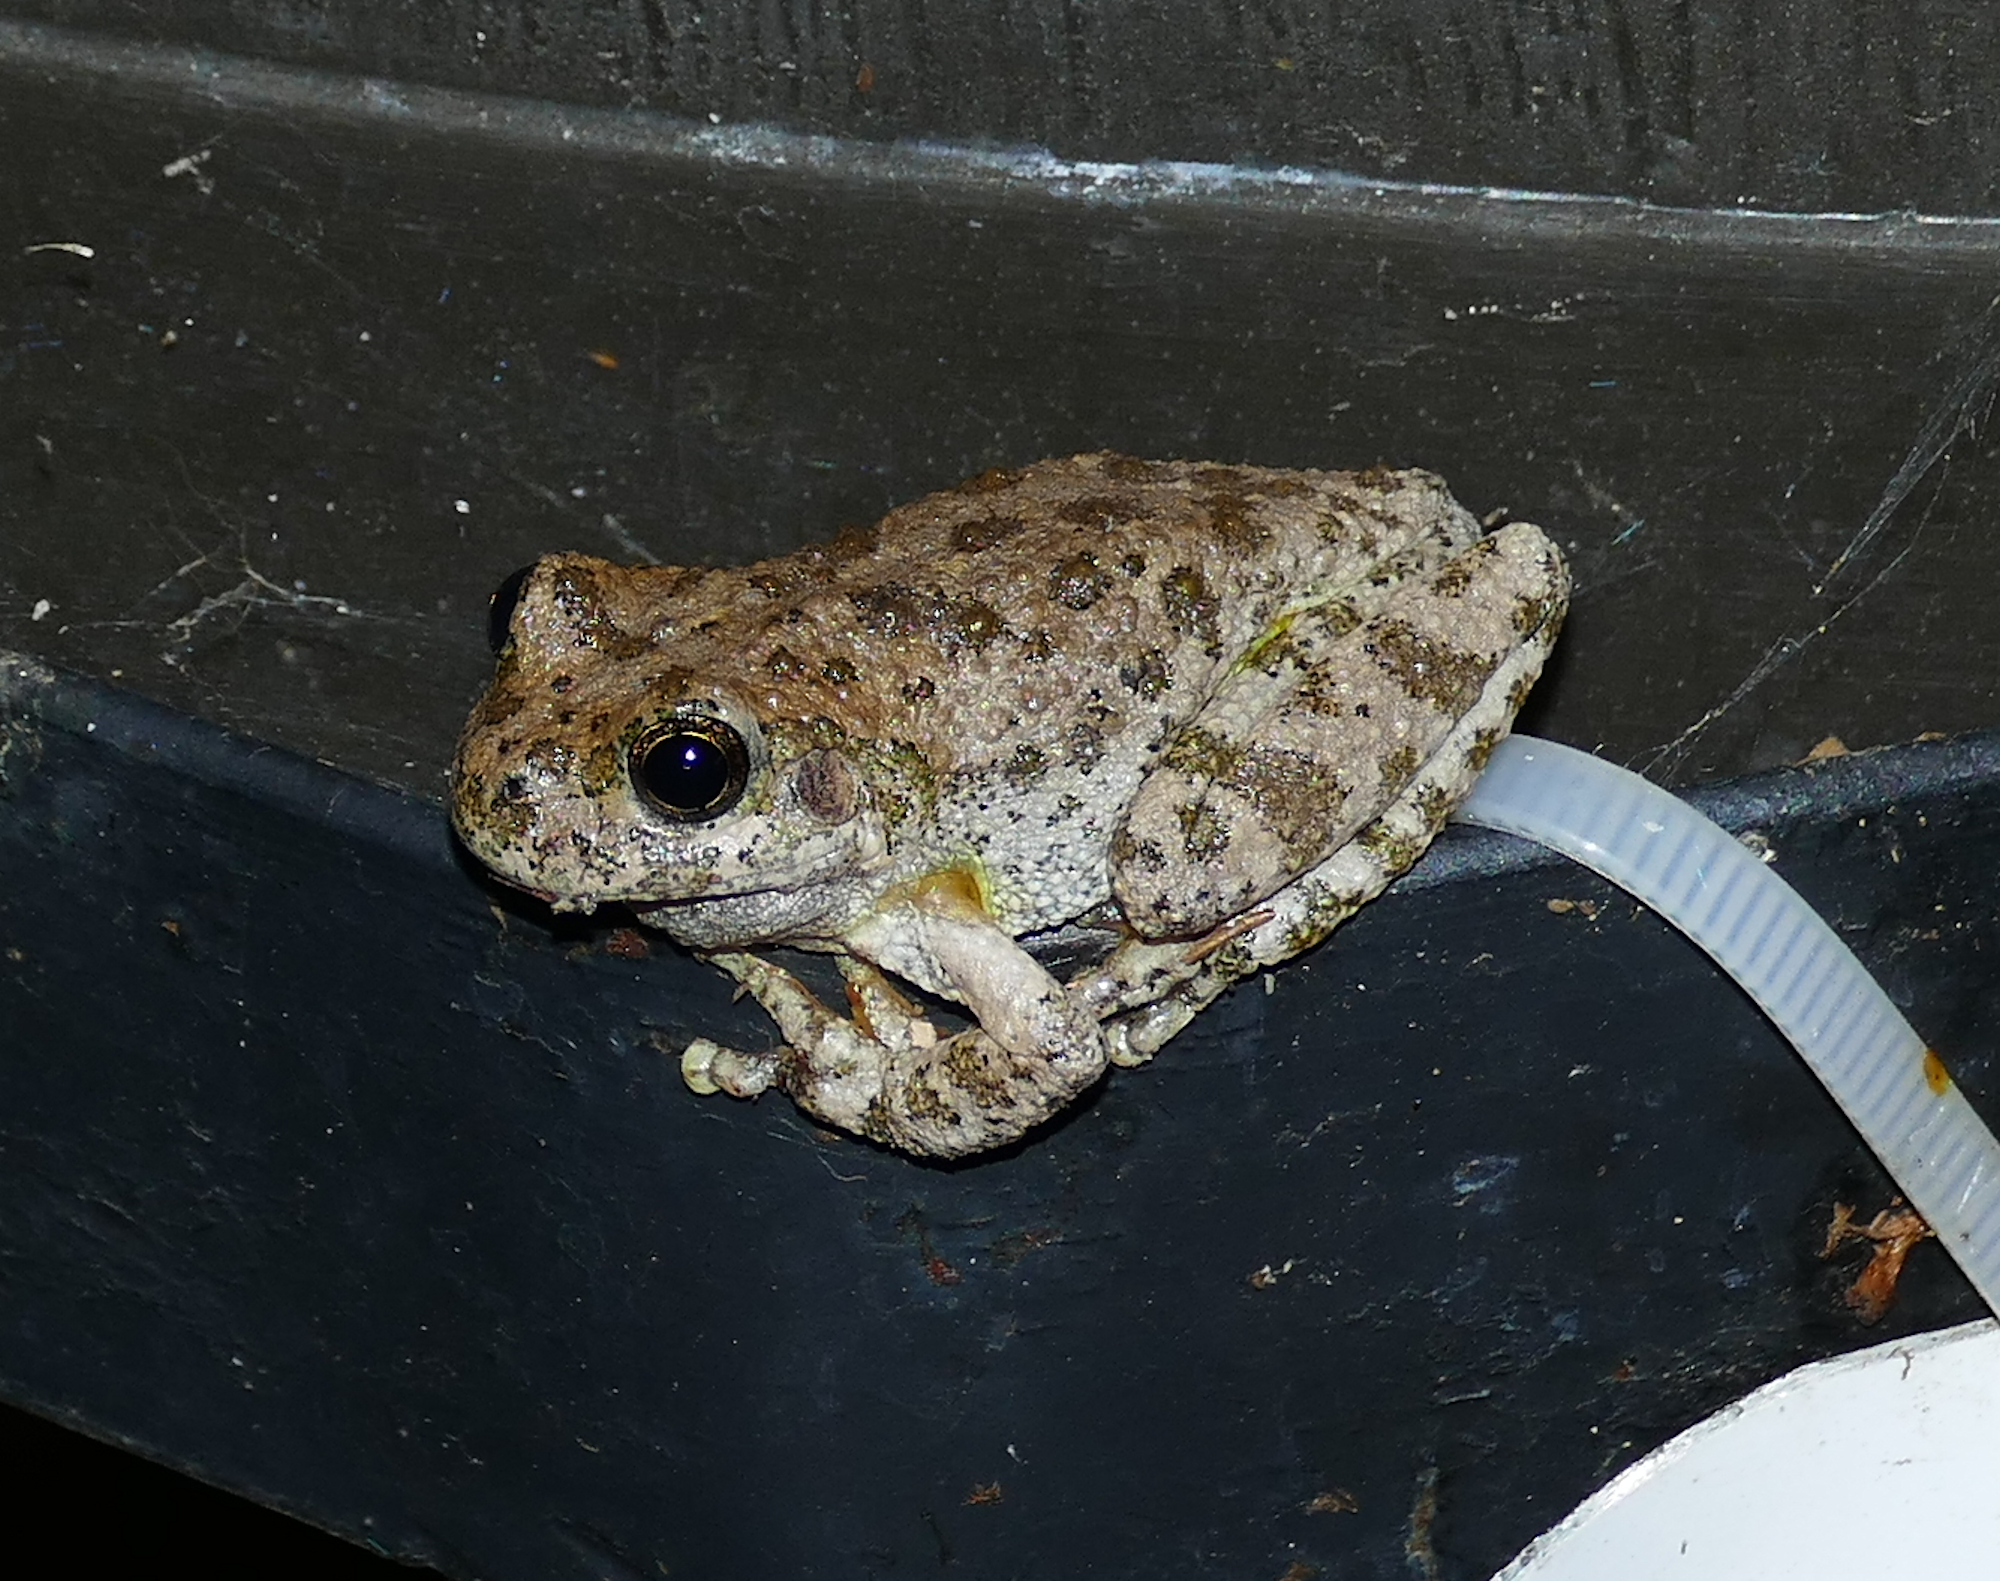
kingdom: Animalia
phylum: Chordata
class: Amphibia
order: Anura
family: Hylidae
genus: Dryophytes
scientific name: Dryophytes arenicolor
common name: Canyon treefrog
